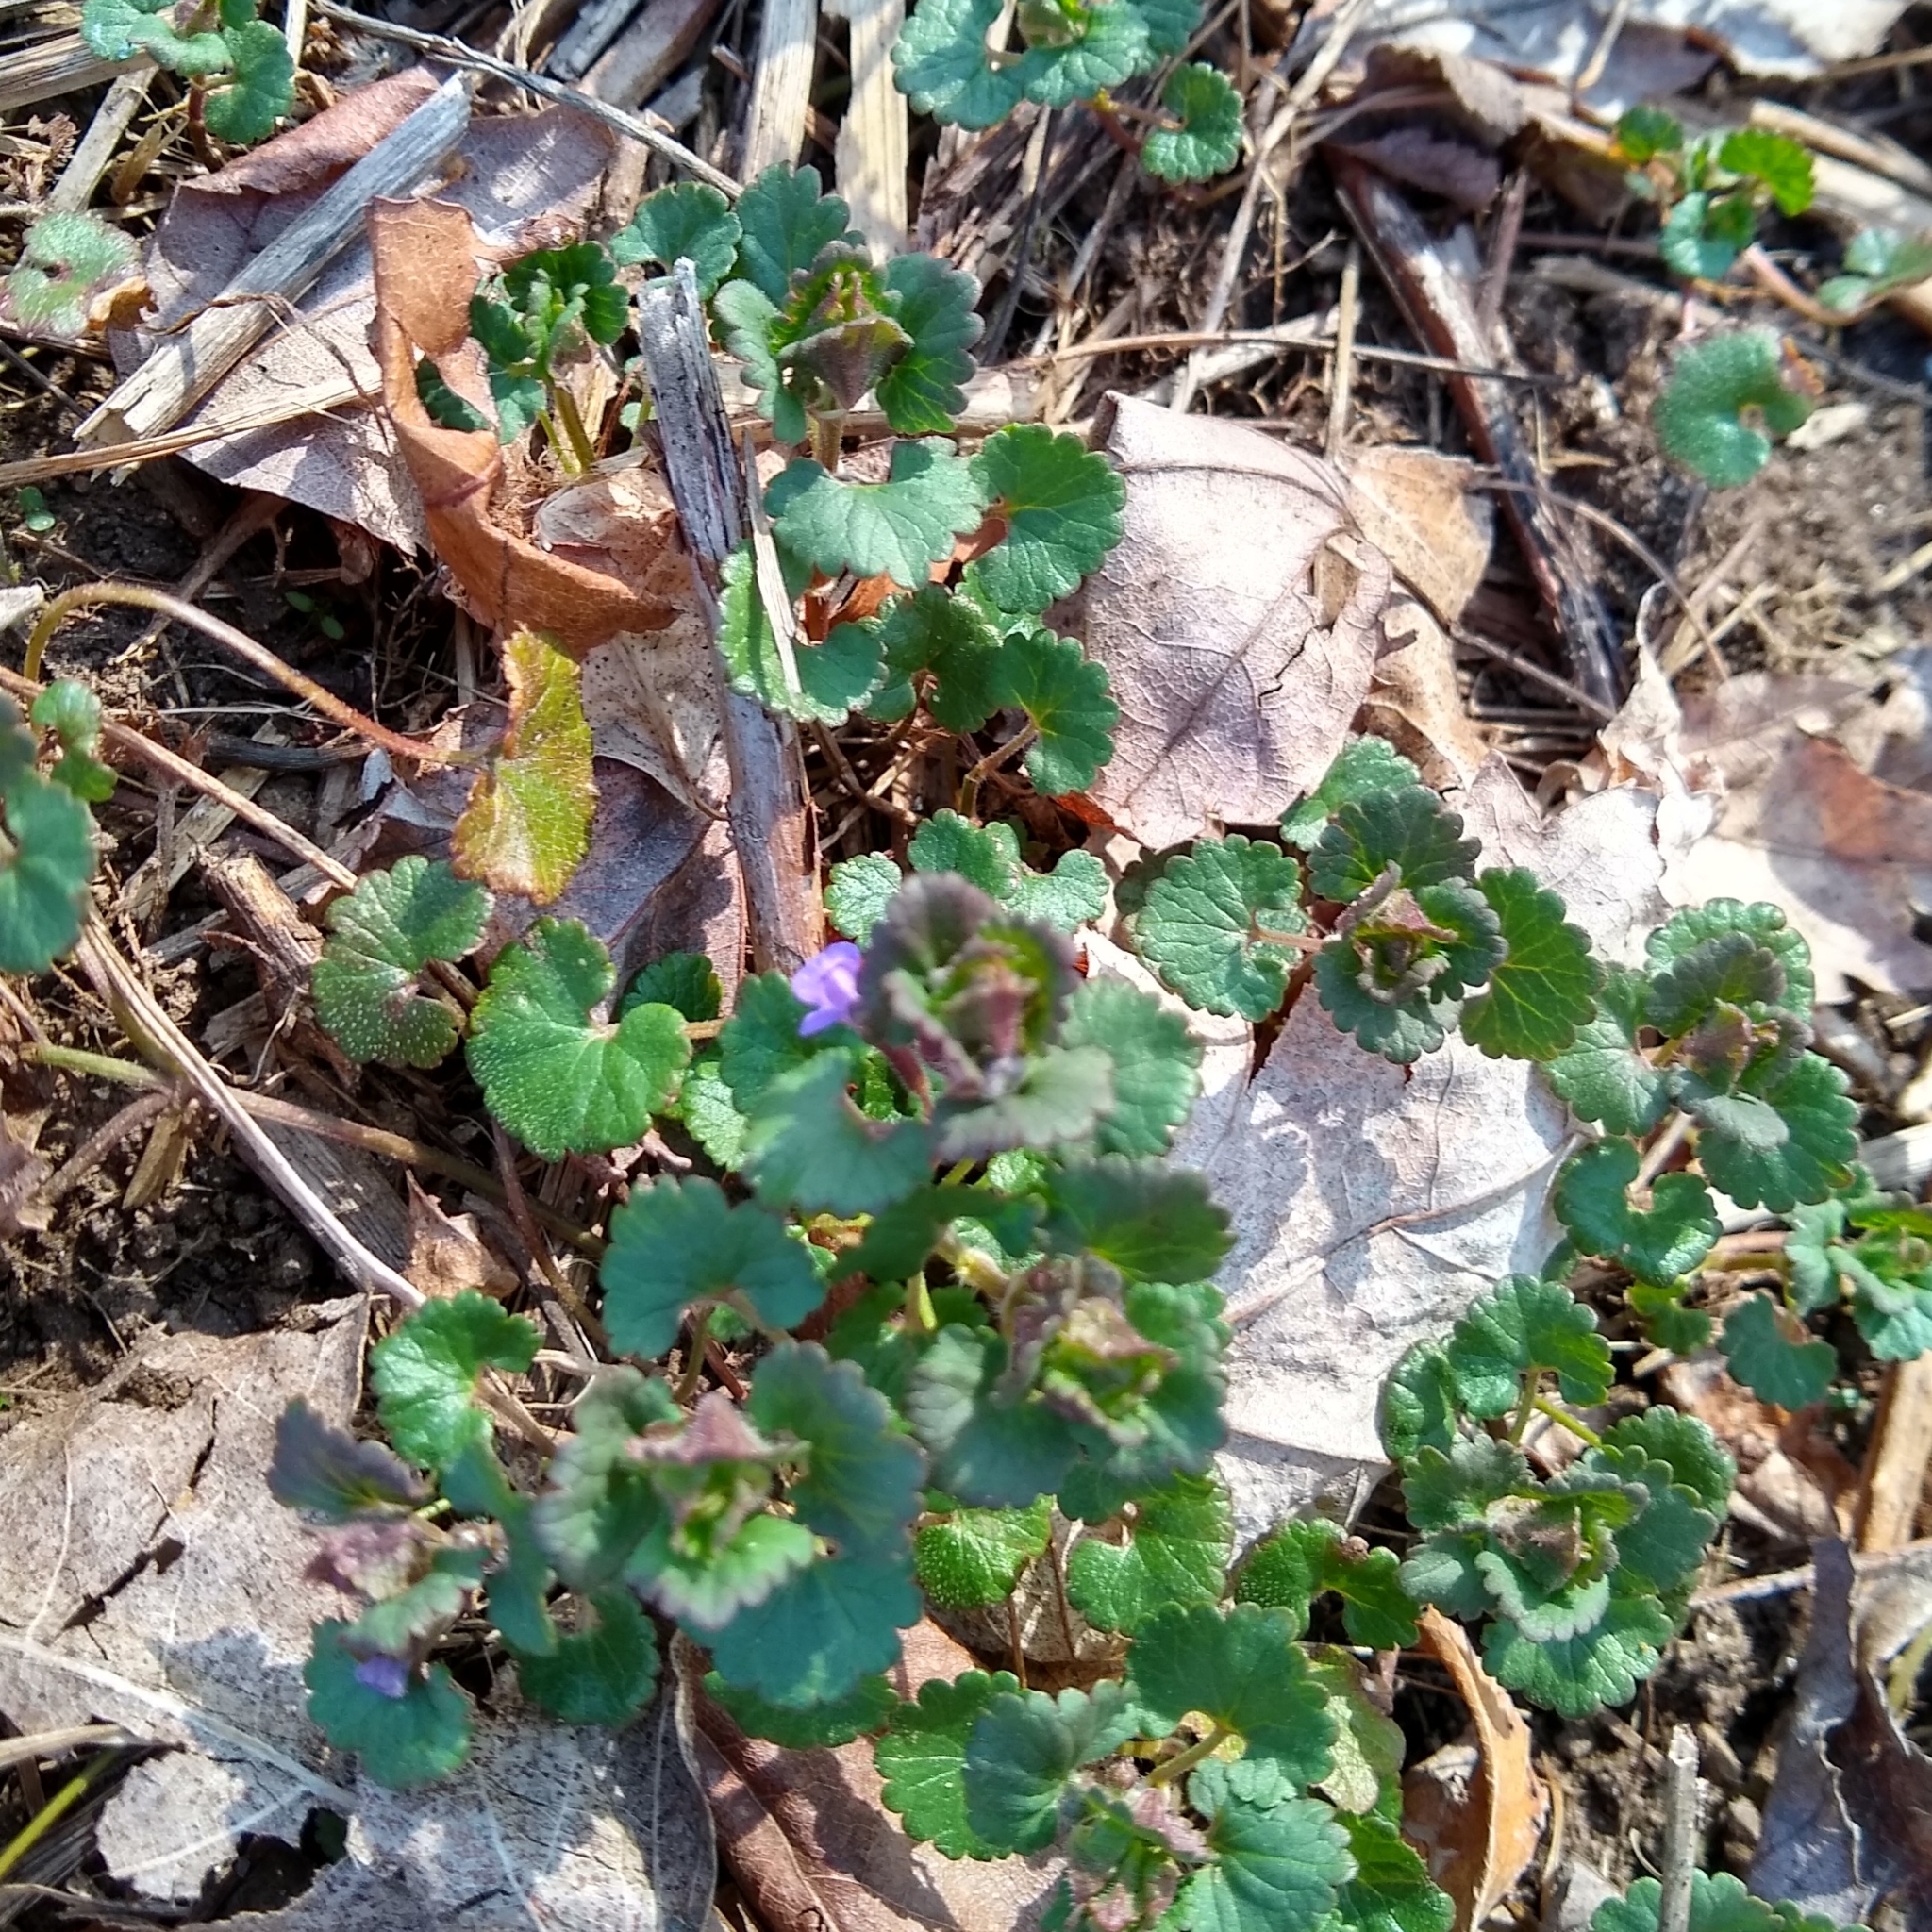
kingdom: Plantae
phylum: Tracheophyta
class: Magnoliopsida
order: Lamiales
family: Lamiaceae
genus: Glechoma
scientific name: Glechoma hederacea
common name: Ground ivy
